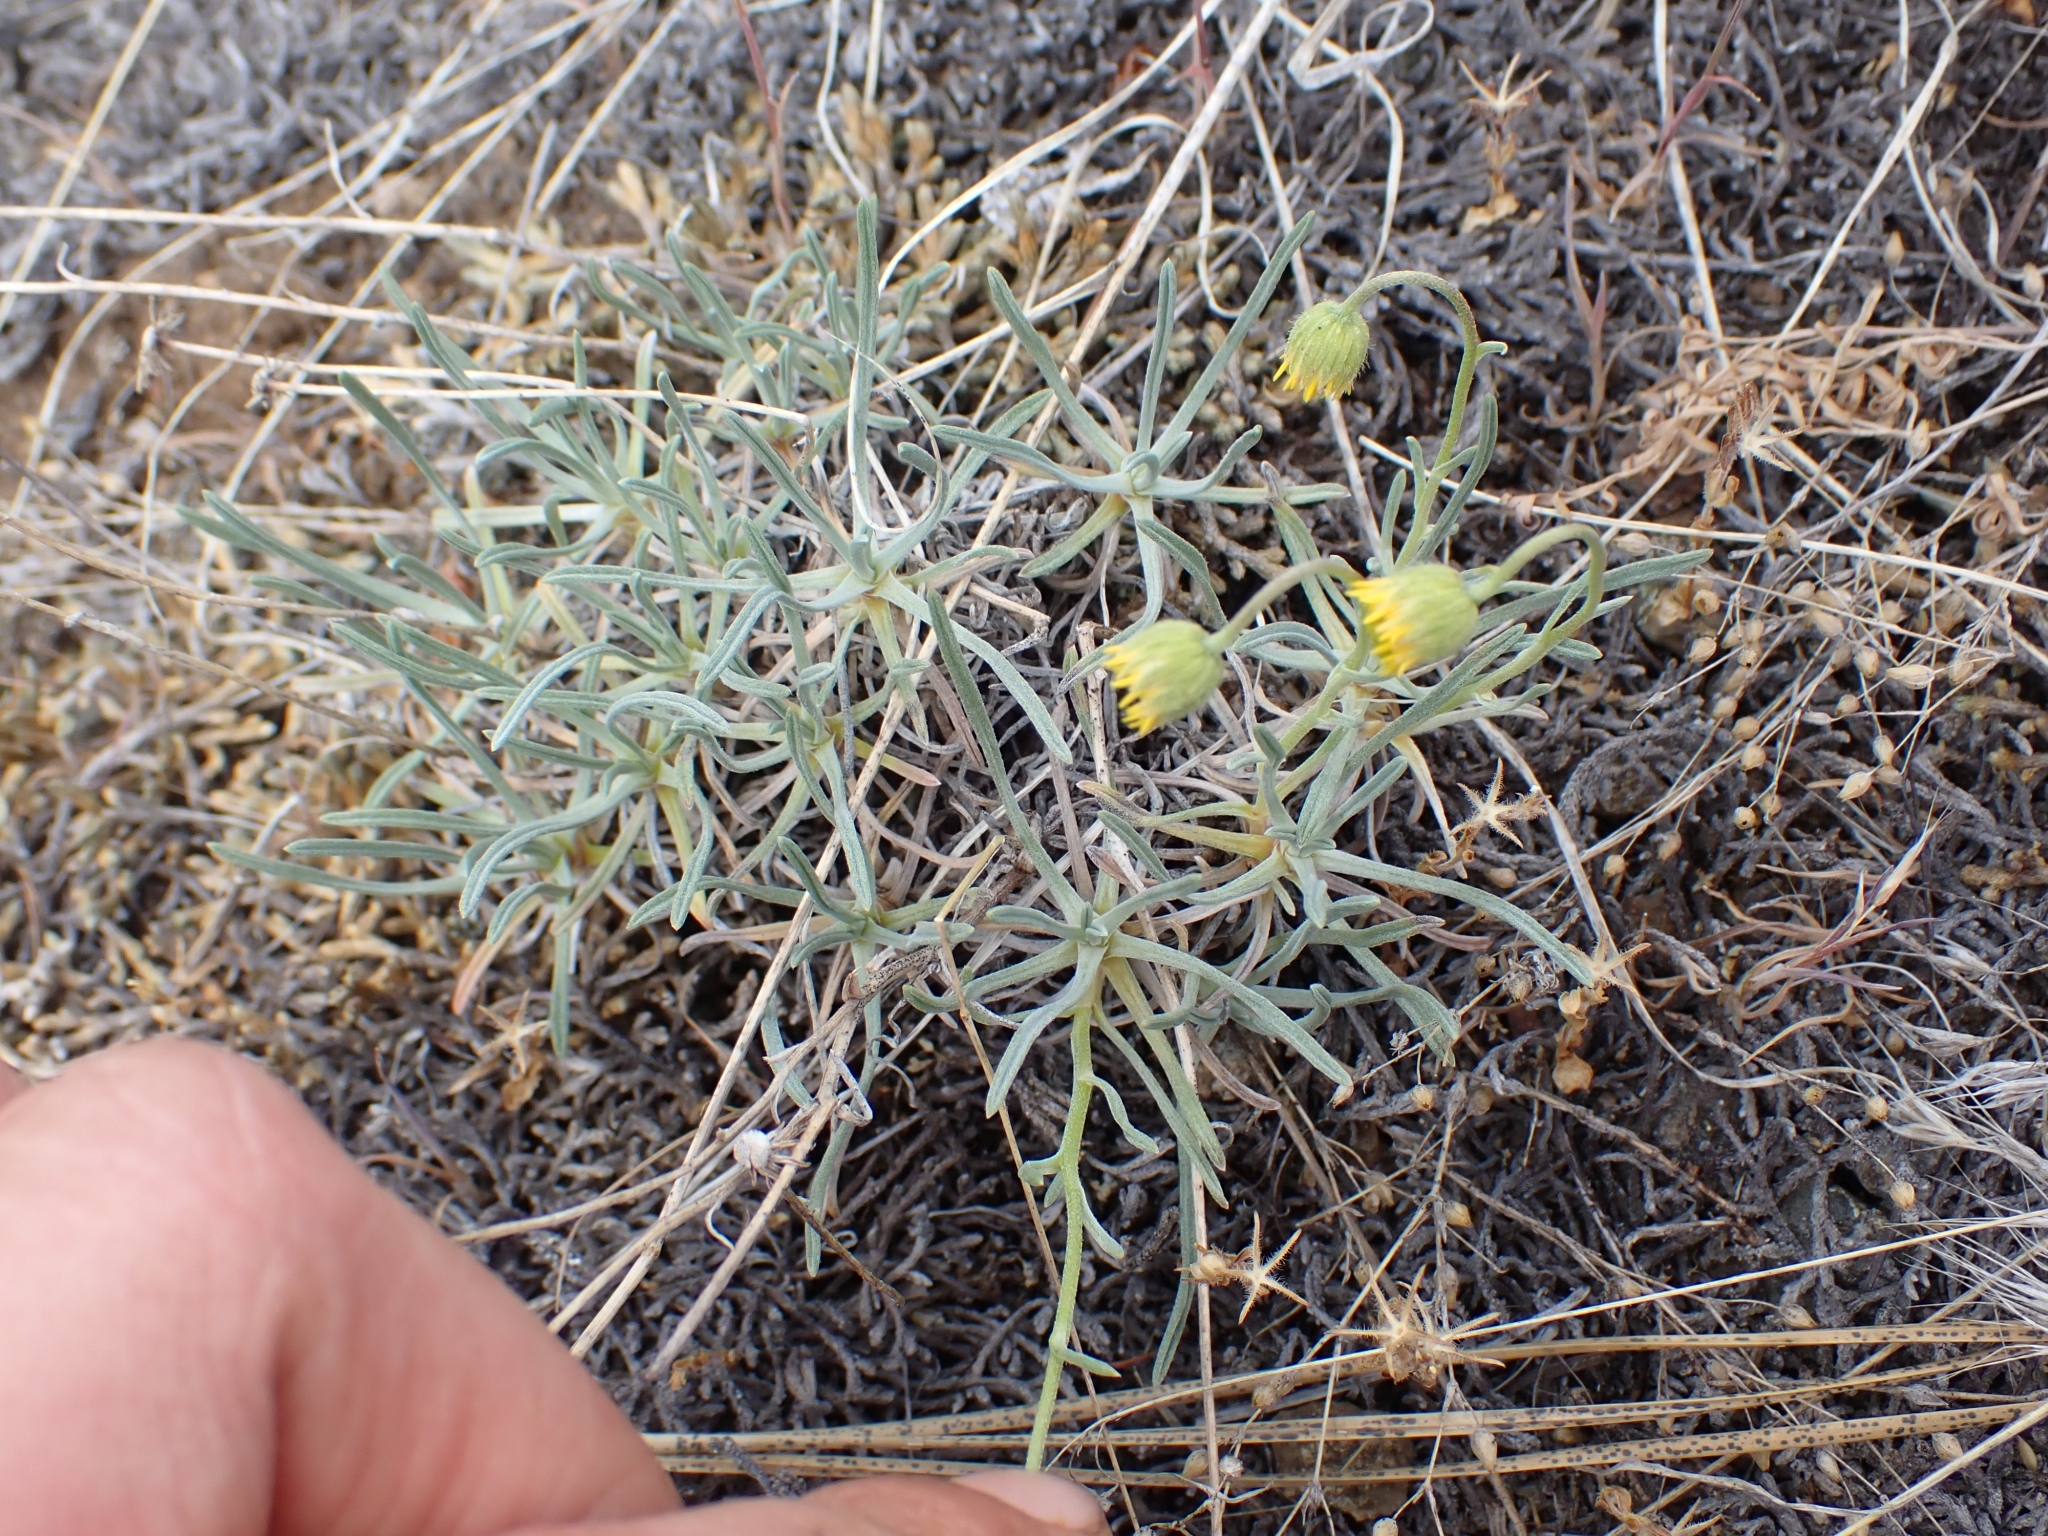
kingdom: Plantae
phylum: Tracheophyta
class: Magnoliopsida
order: Asterales
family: Asteraceae
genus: Erigeron
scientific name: Erigeron linearis
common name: Desert yellow fleabane
